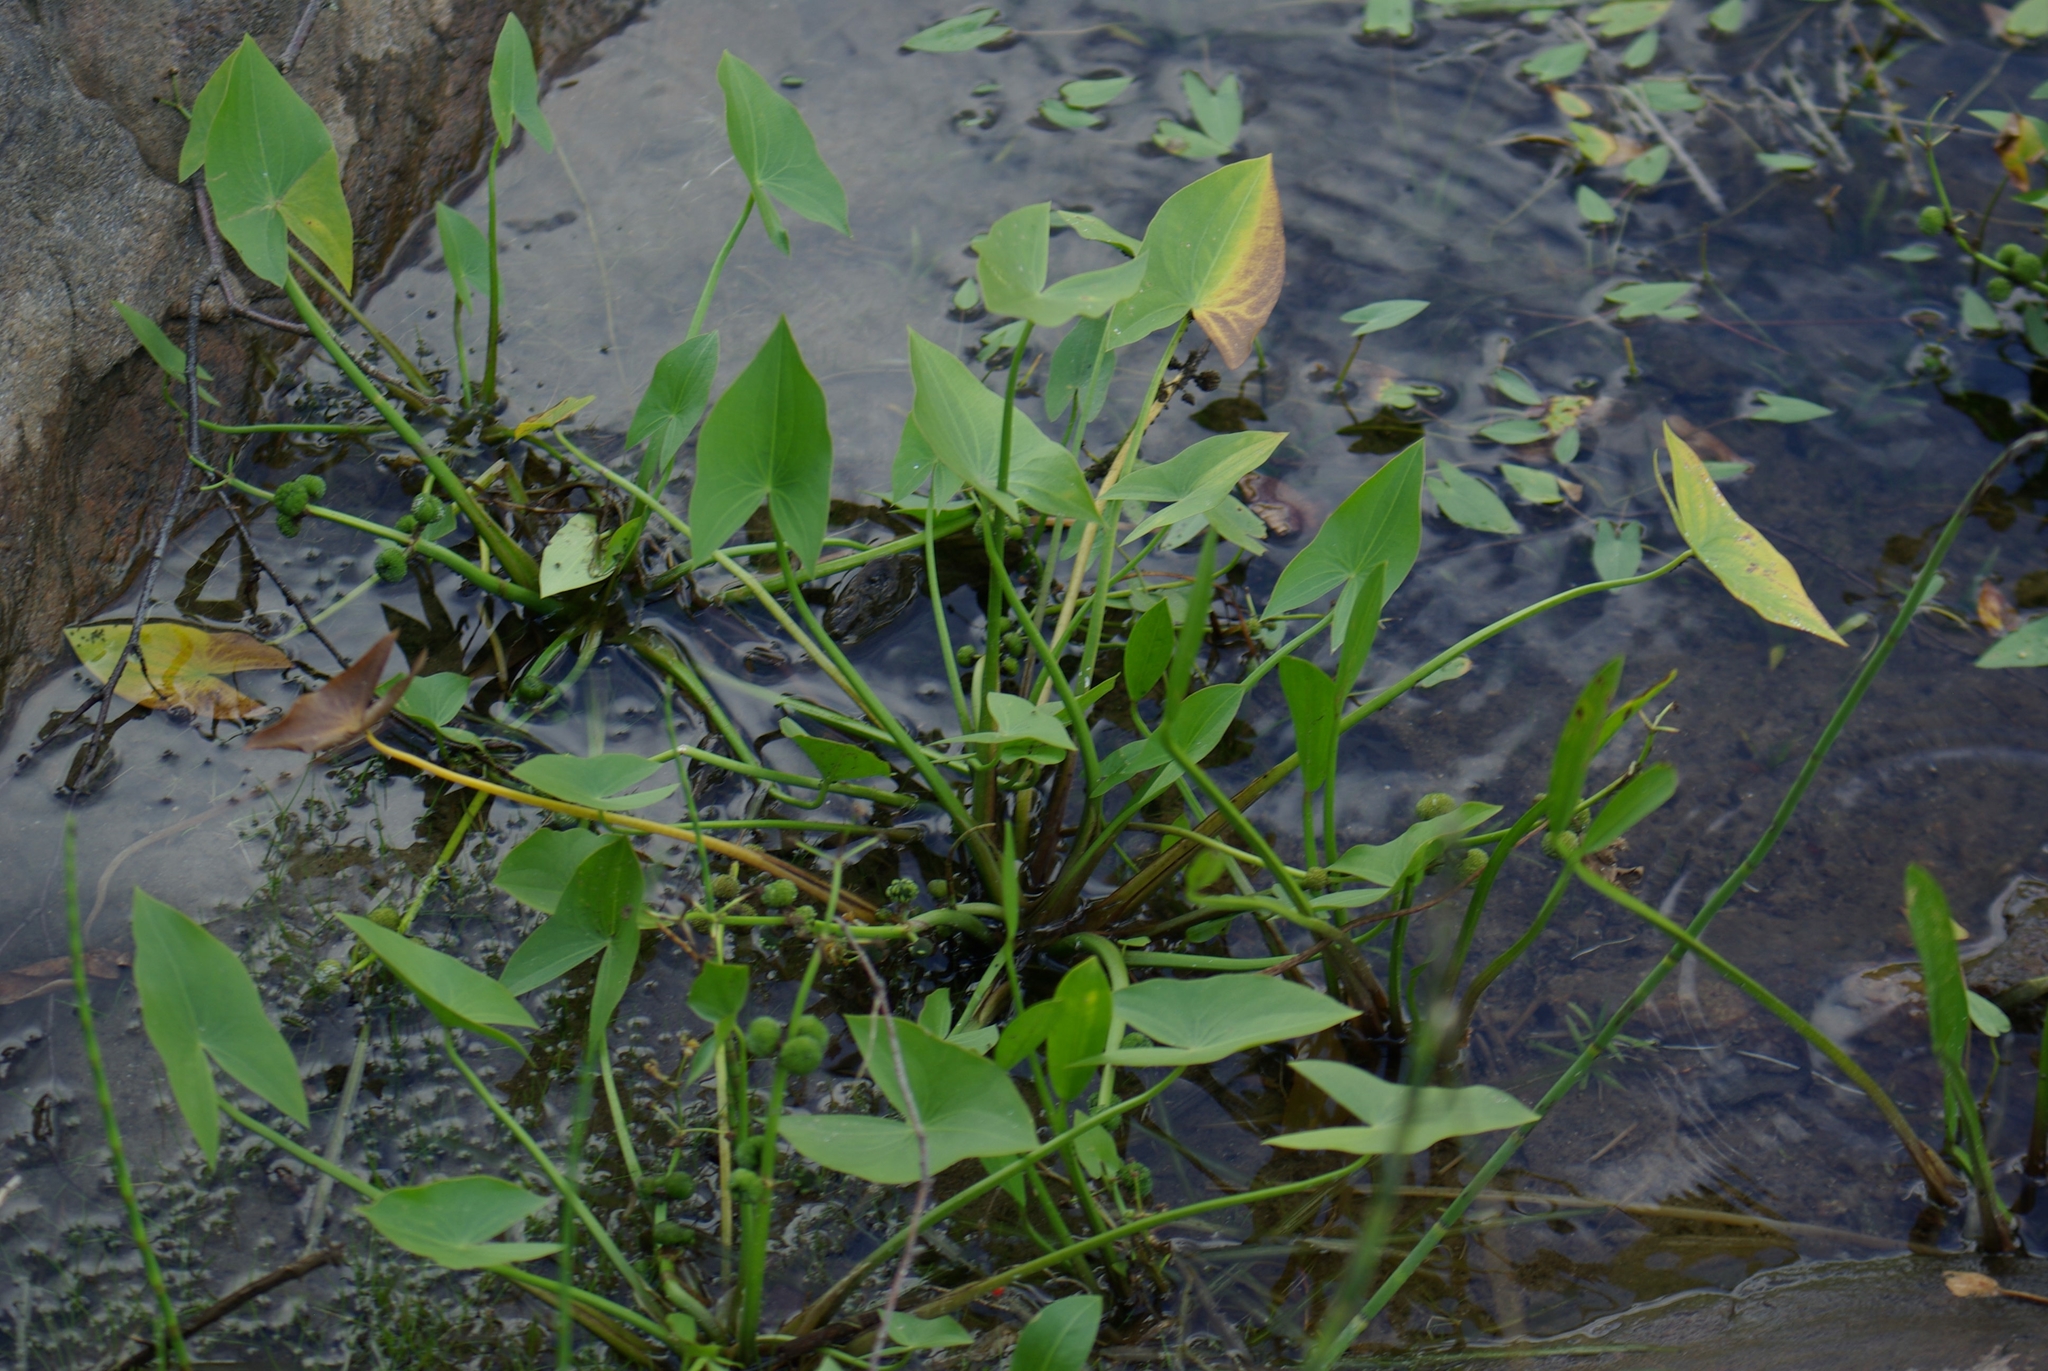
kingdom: Plantae
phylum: Tracheophyta
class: Liliopsida
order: Alismatales
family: Alismataceae
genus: Sagittaria
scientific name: Sagittaria cuneata
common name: Northern arrowhead
